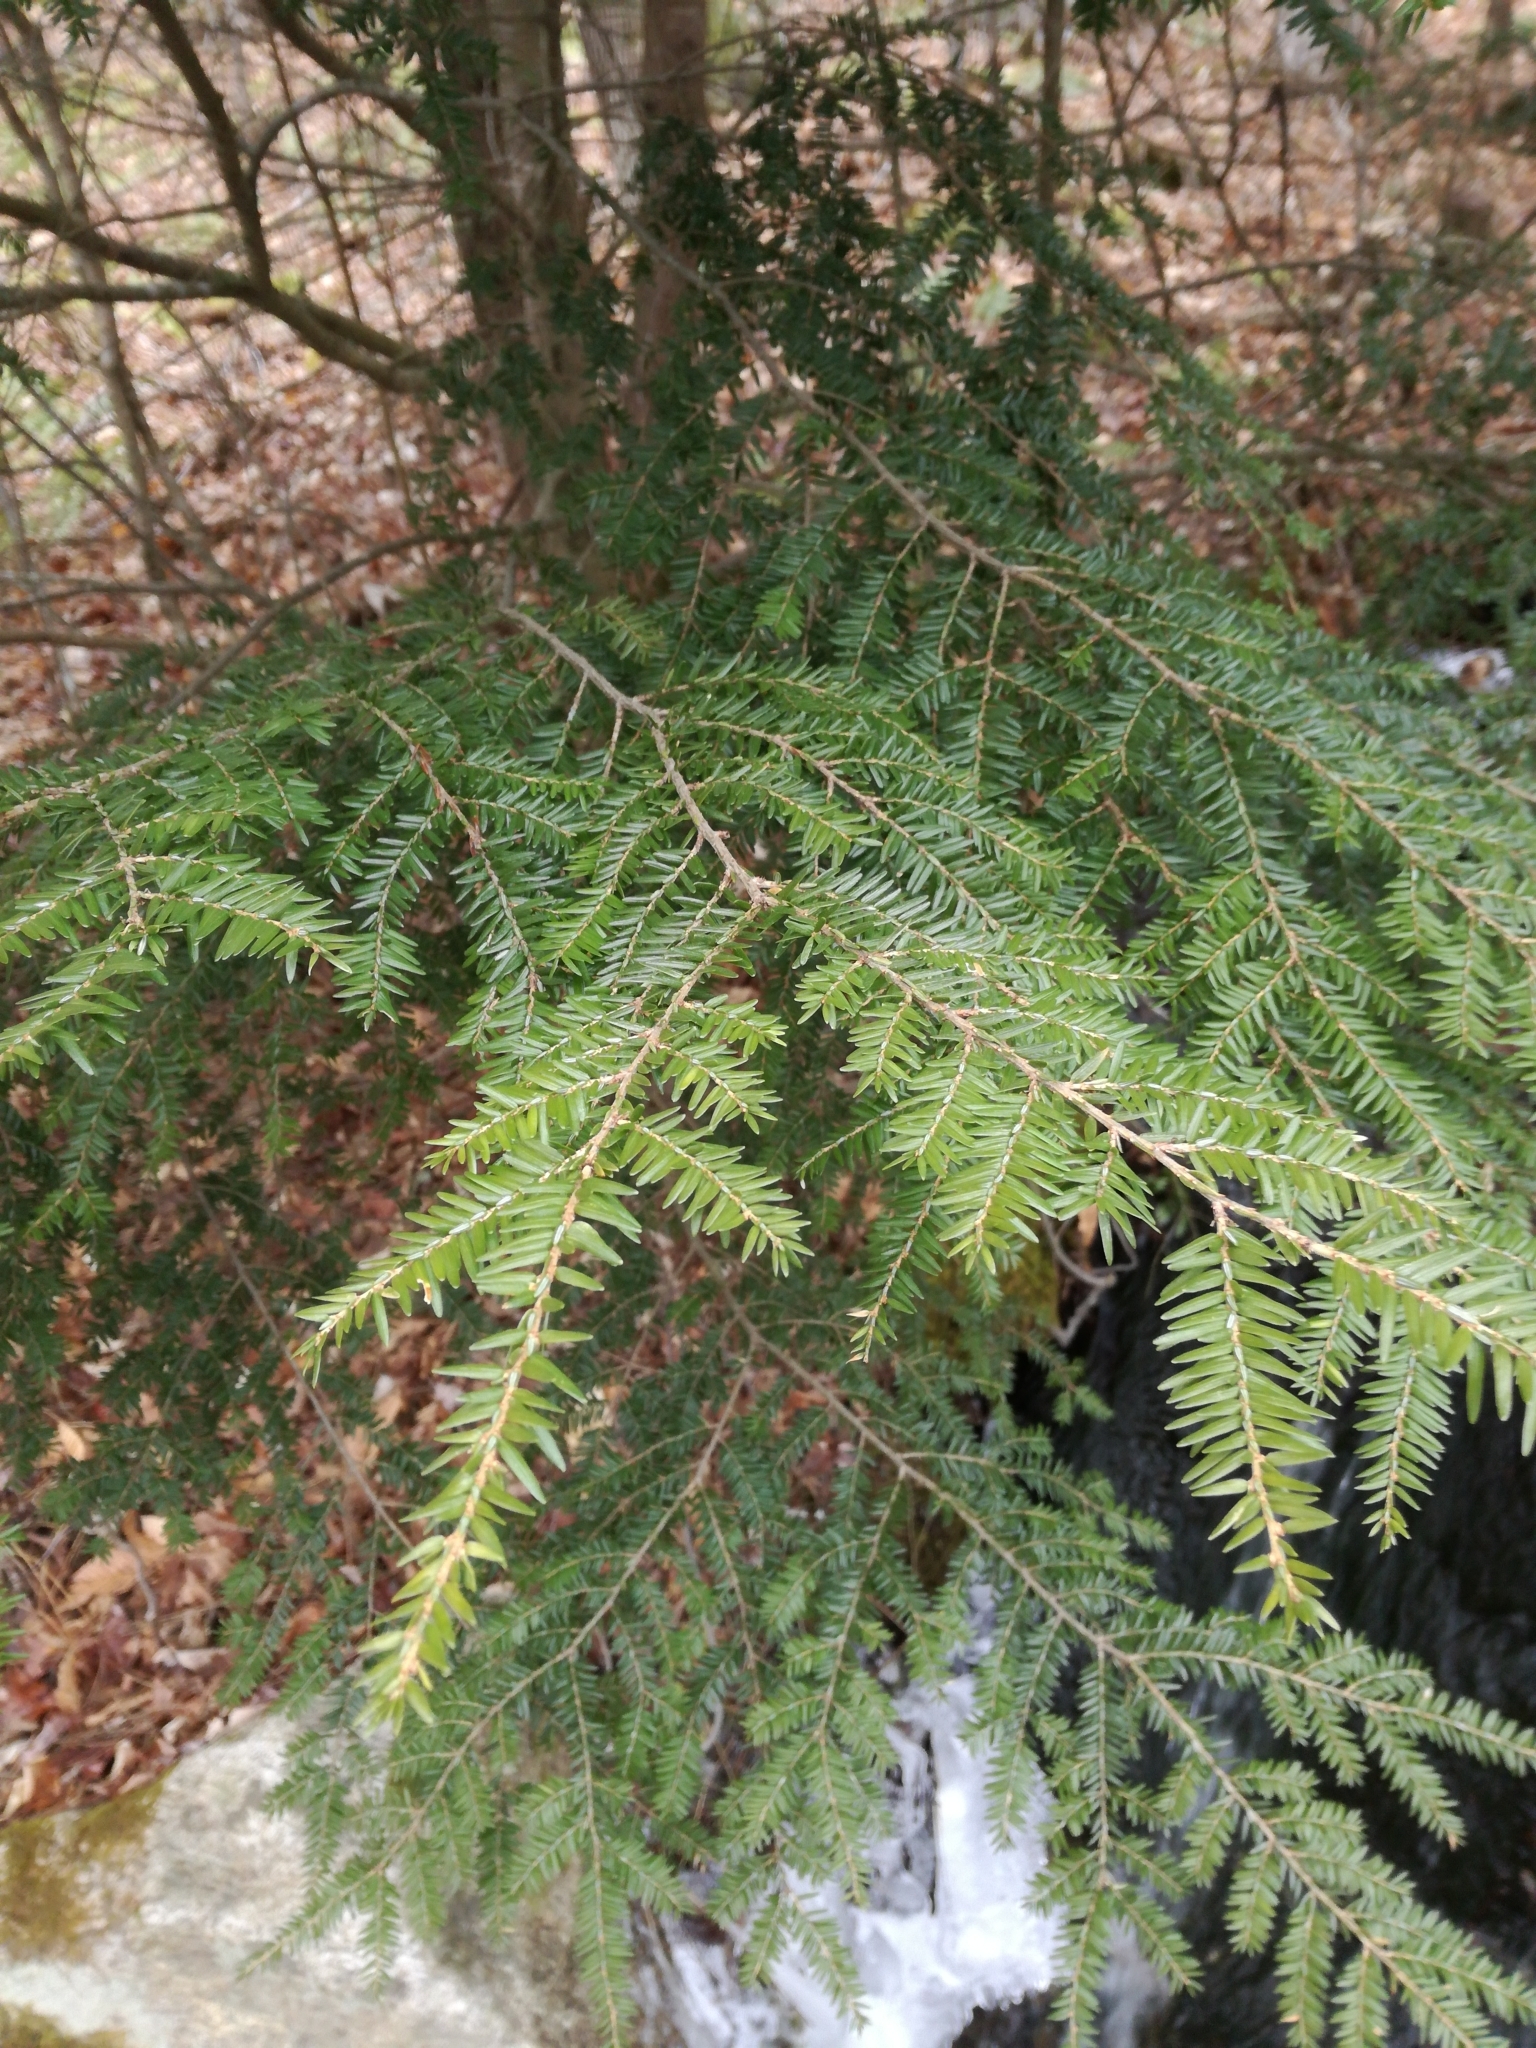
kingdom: Plantae
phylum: Tracheophyta
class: Pinopsida
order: Pinales
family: Pinaceae
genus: Tsuga
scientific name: Tsuga canadensis
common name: Eastern hemlock
